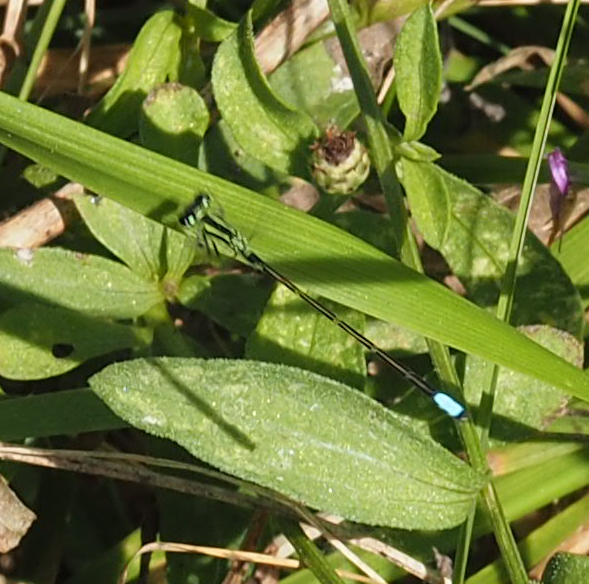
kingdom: Animalia
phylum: Arthropoda
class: Insecta
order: Odonata
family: Coenagrionidae
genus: Ischnura
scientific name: Ischnura verticalis
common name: Eastern forktail
